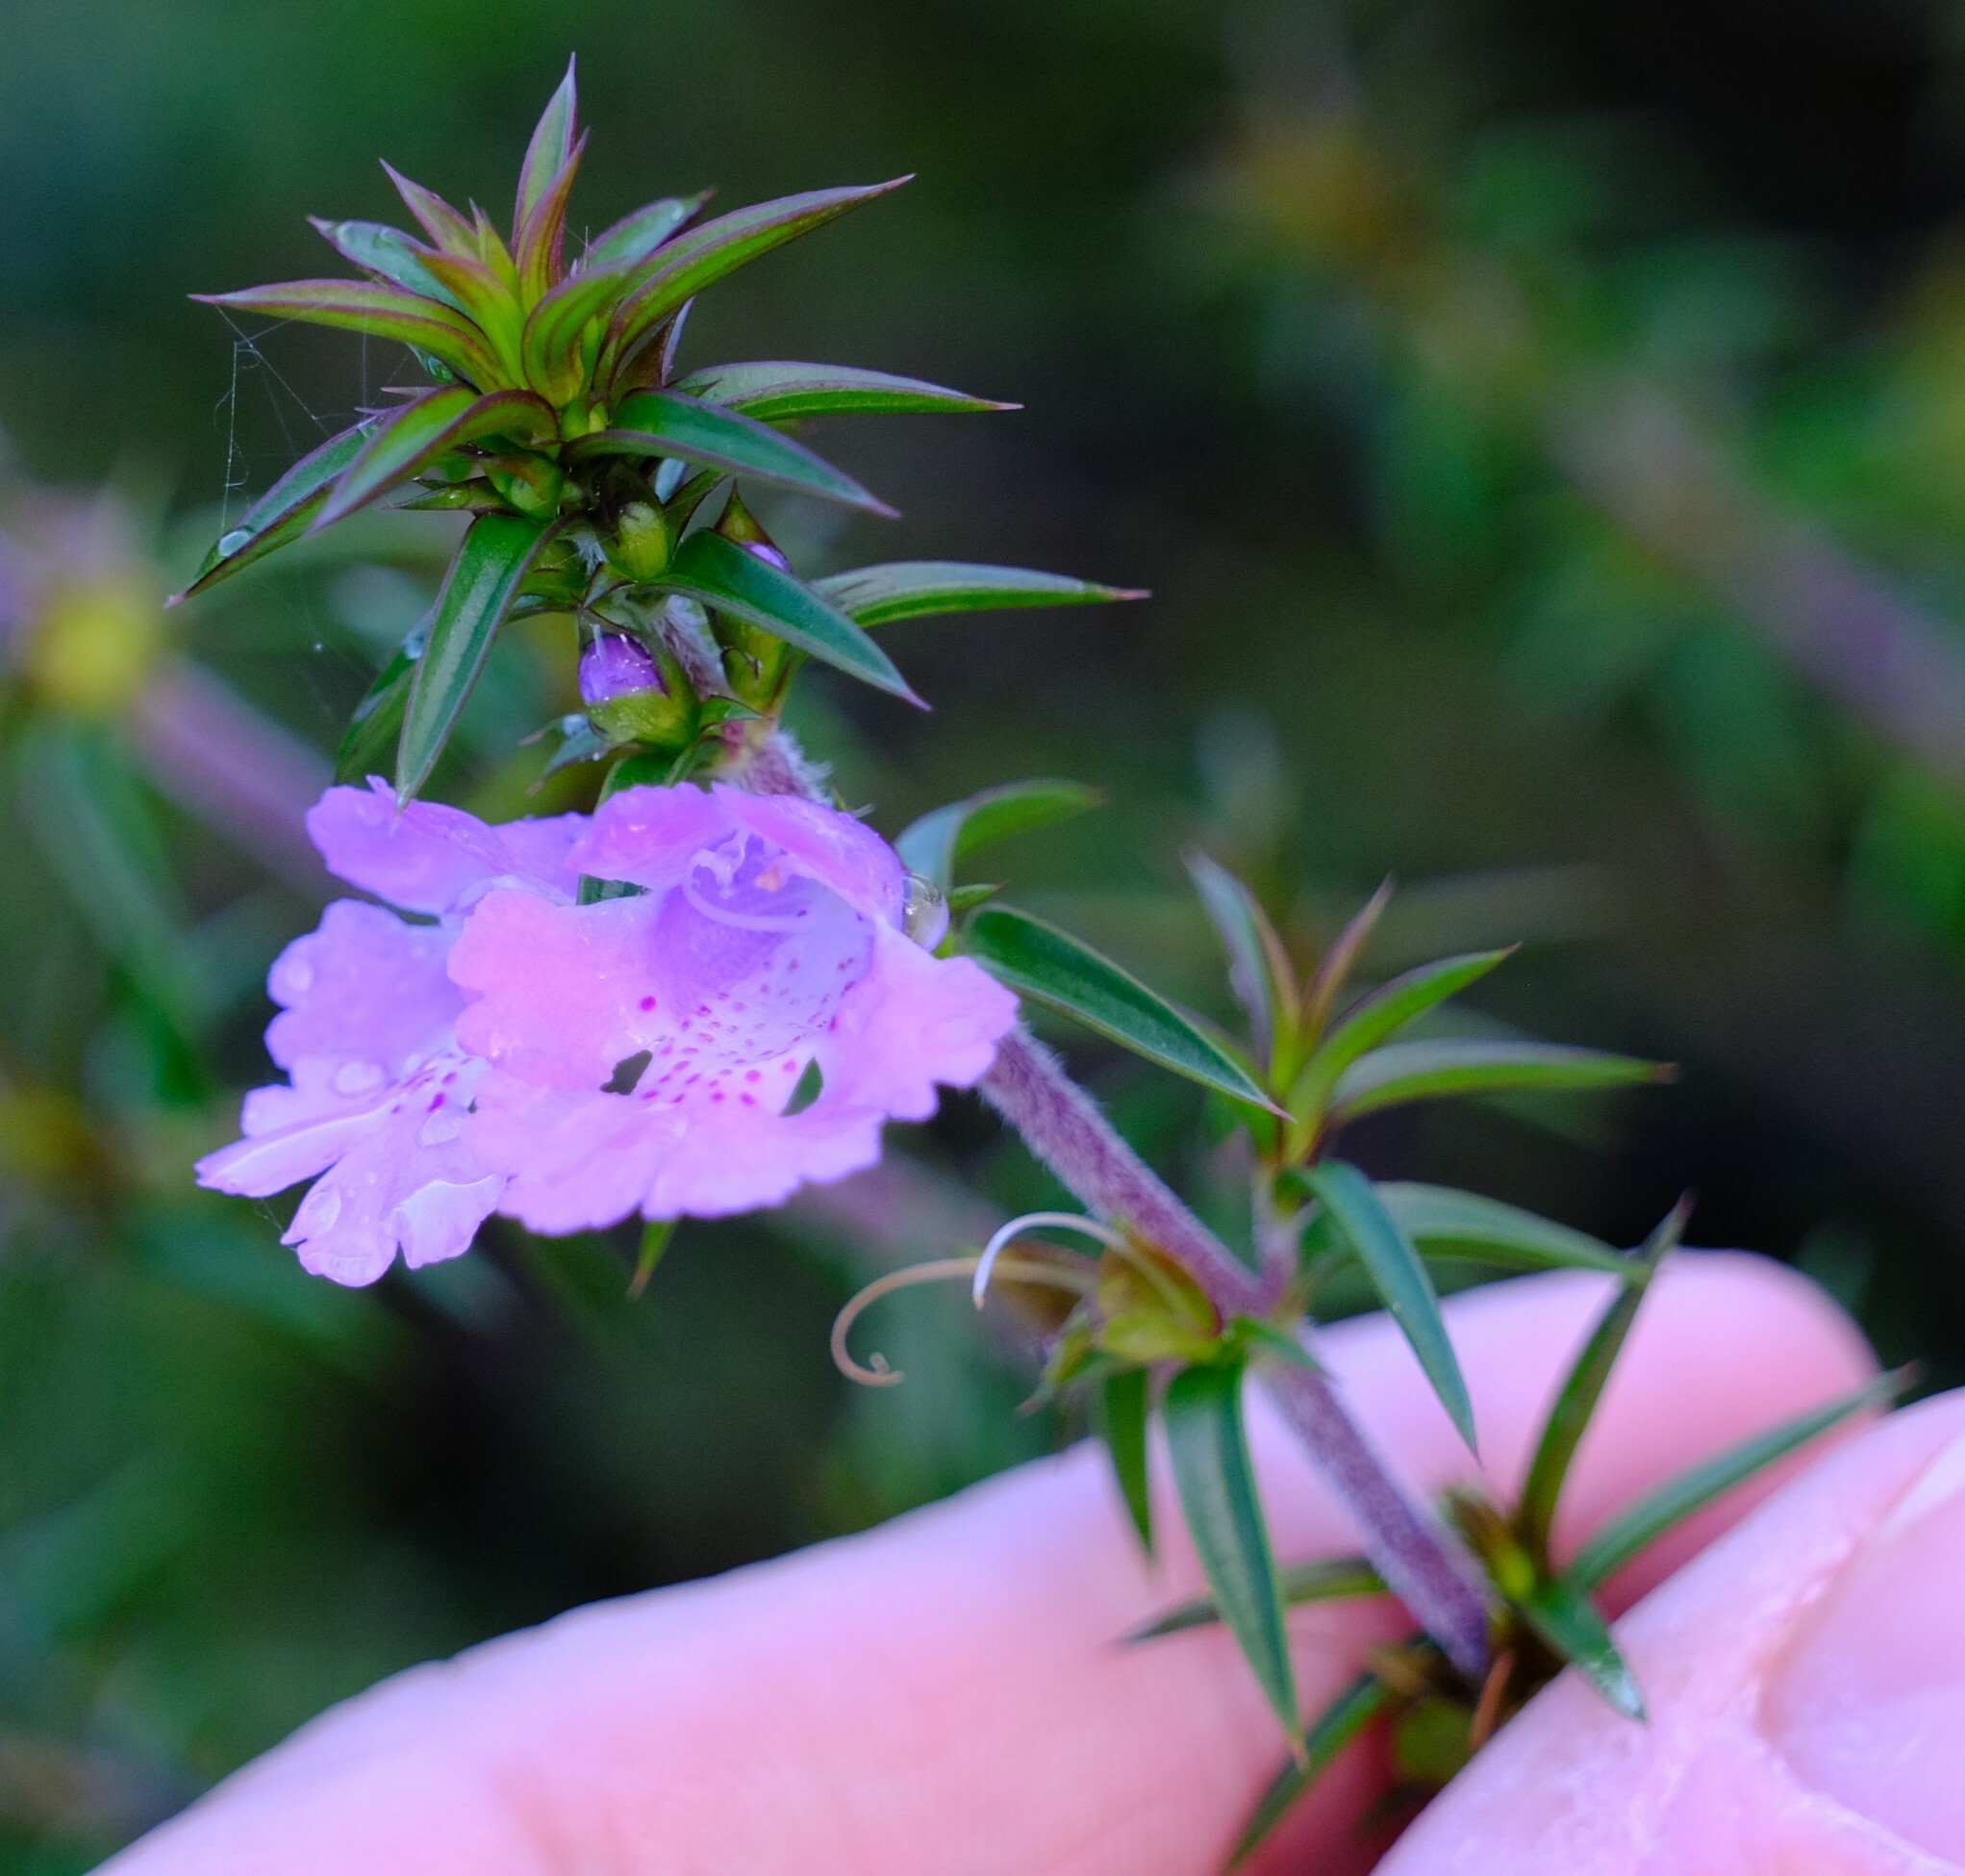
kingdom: Plantae
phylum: Tracheophyta
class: Magnoliopsida
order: Lamiales
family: Lamiaceae
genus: Hemiandra
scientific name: Hemiandra pungens
